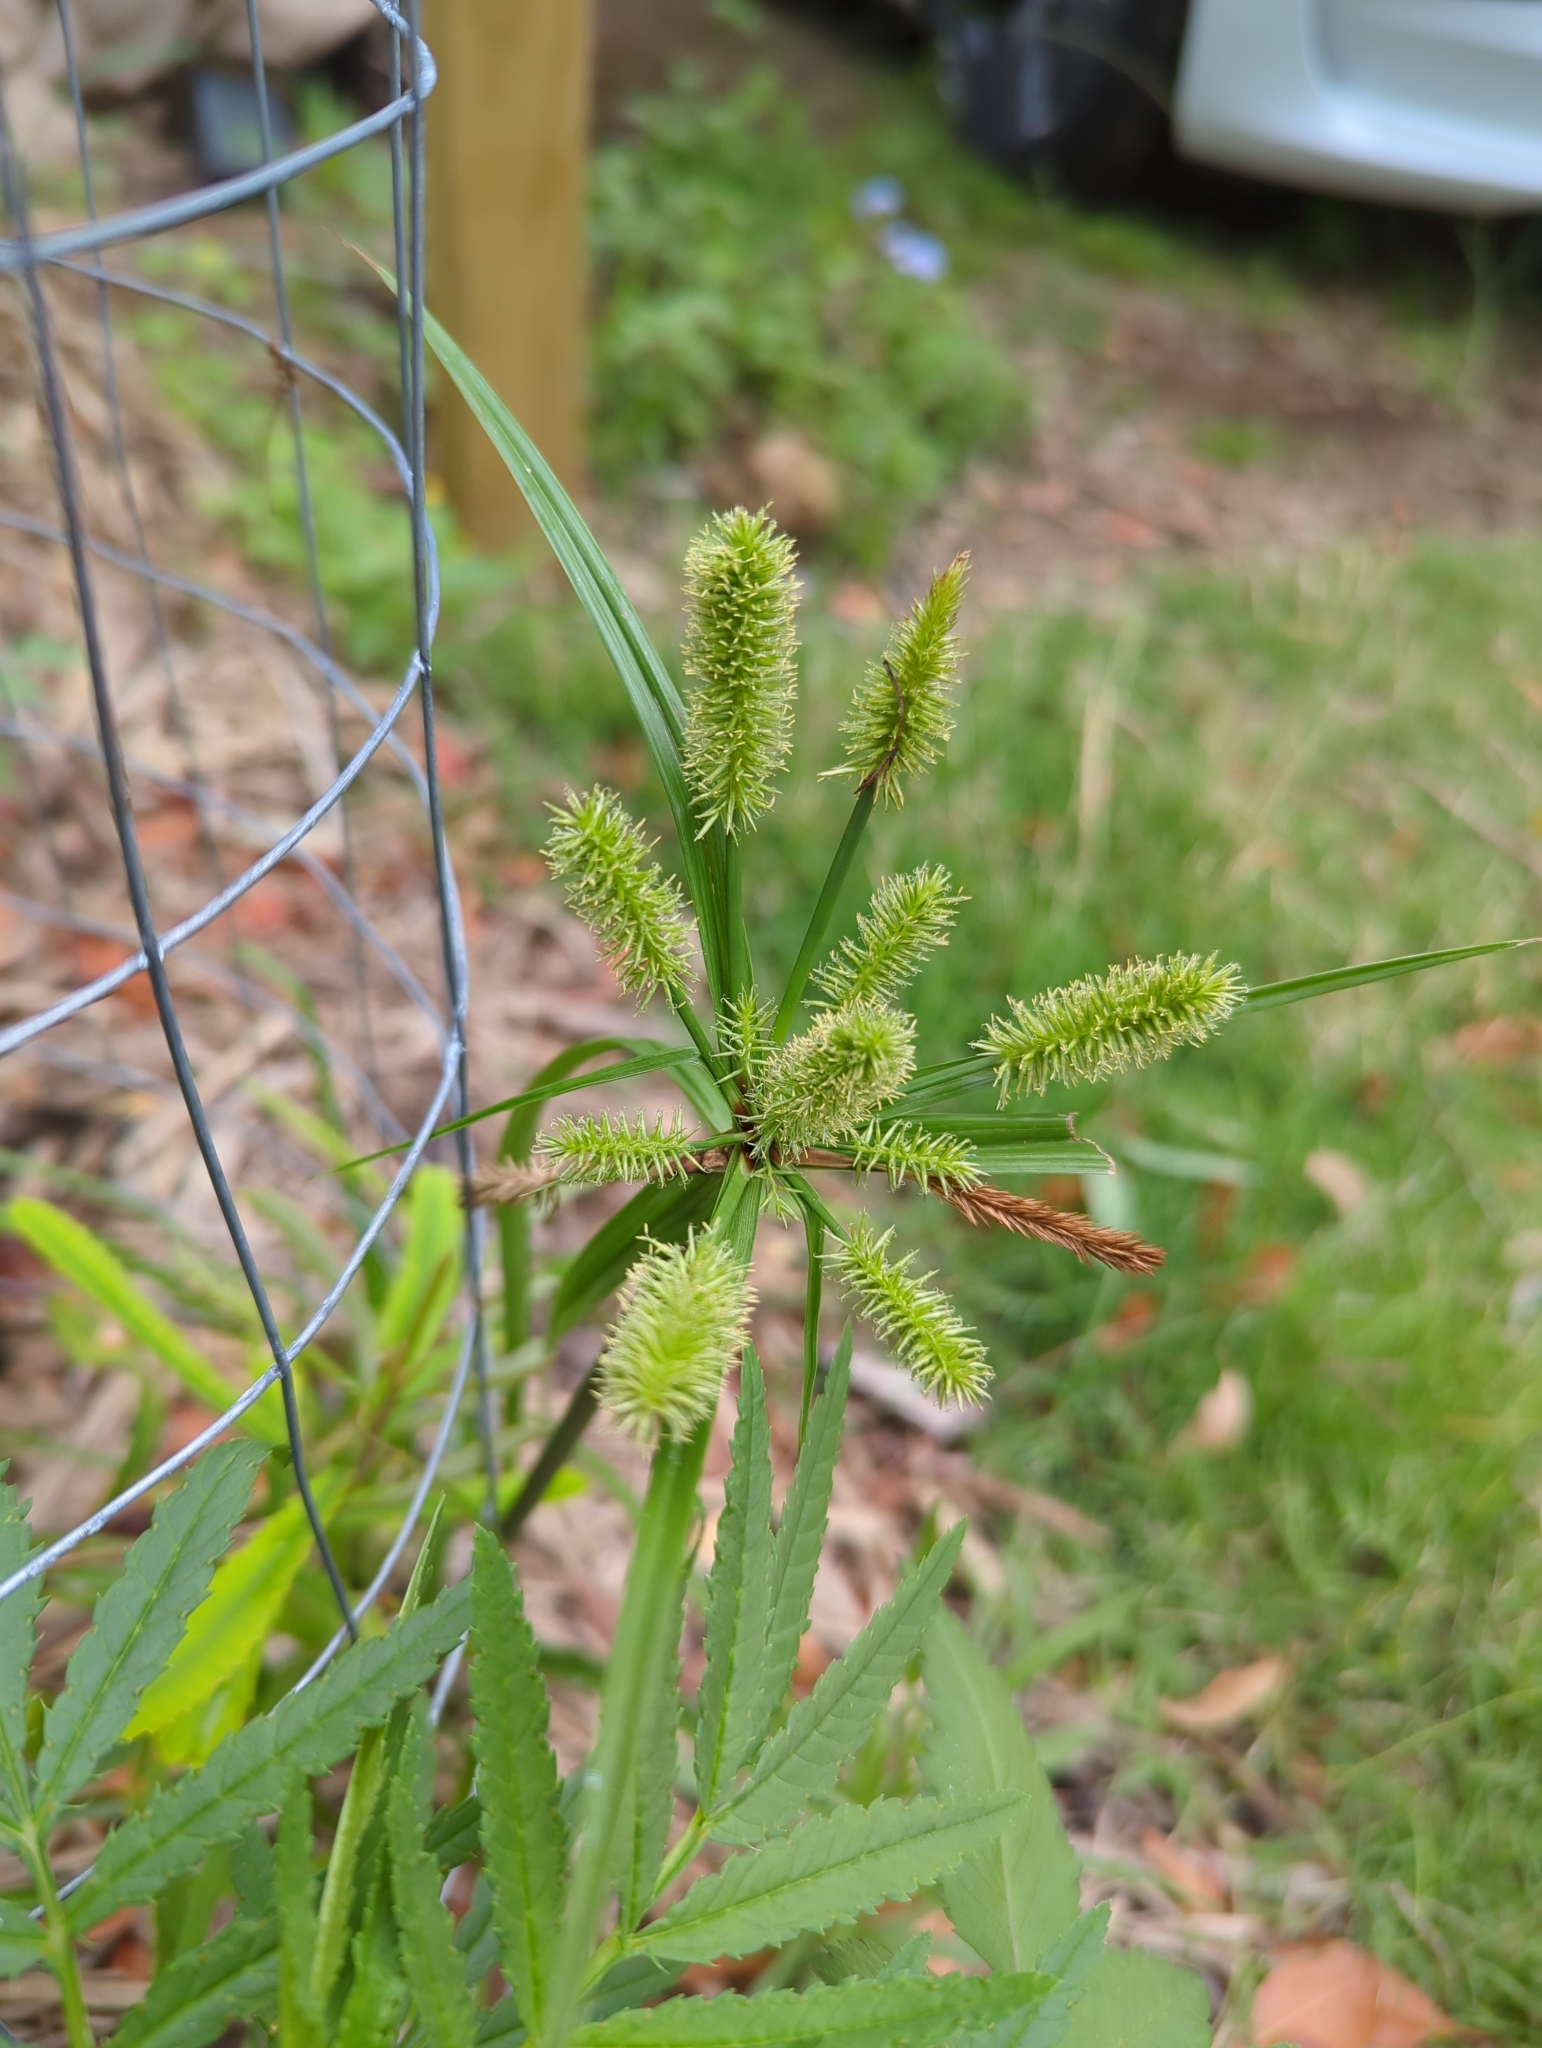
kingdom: Plantae
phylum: Tracheophyta
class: Liliopsida
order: Poales
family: Cyperaceae
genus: Cyperus
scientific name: Cyperus cyperoides
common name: Pacific island flat sedge
